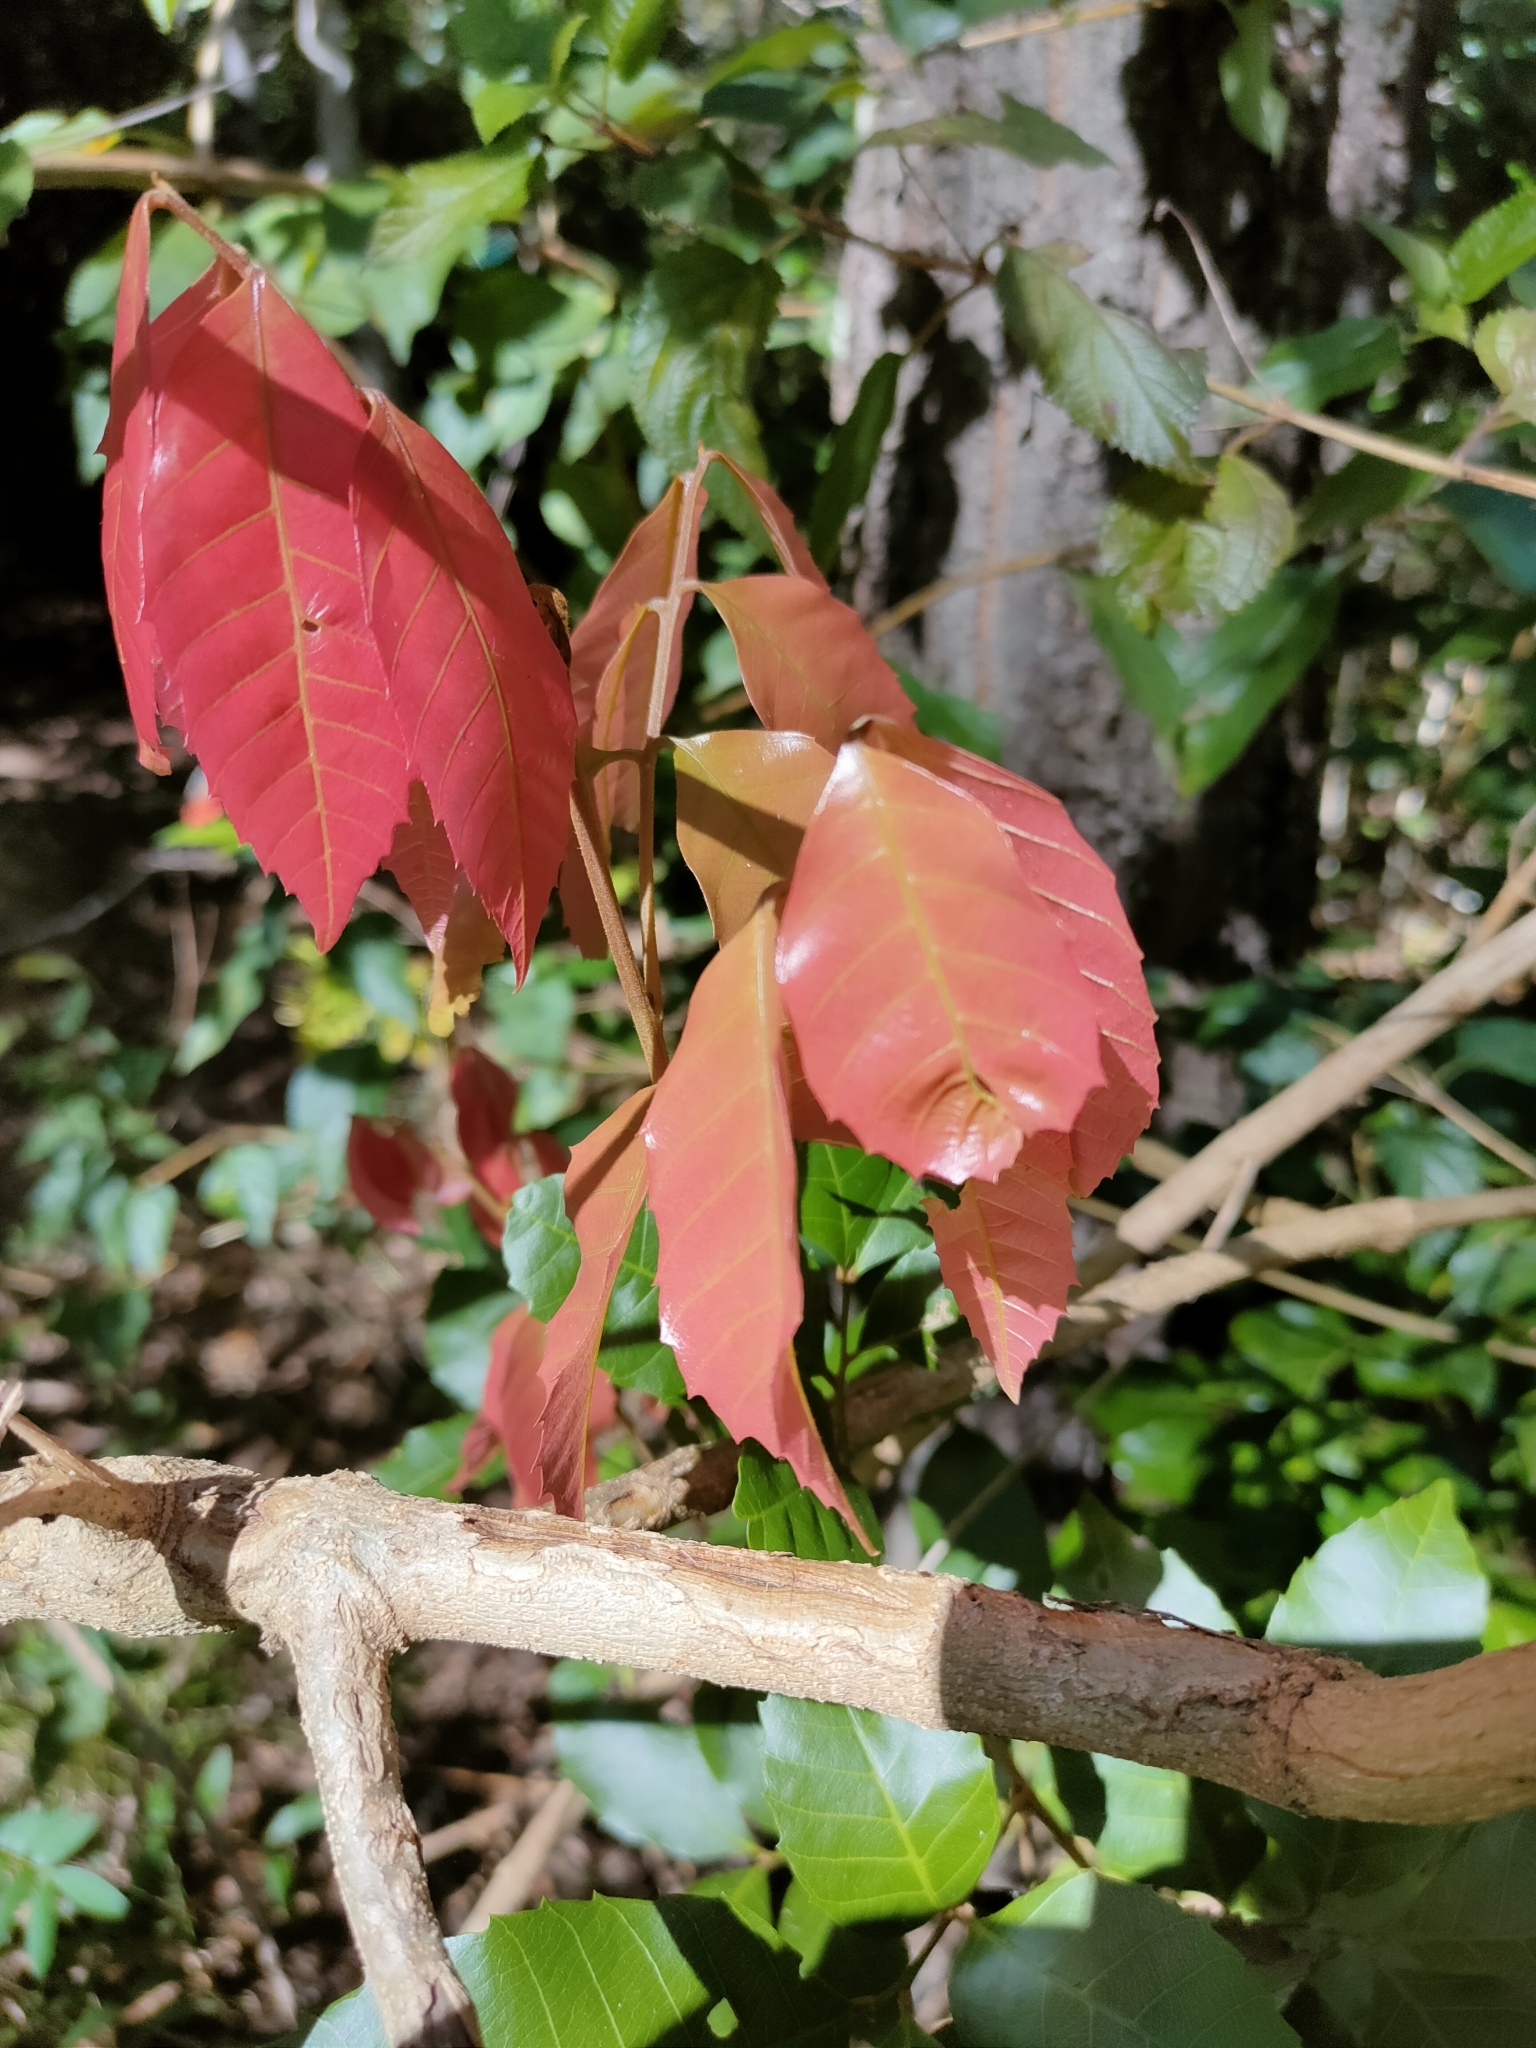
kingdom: Plantae
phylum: Tracheophyta
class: Magnoliopsida
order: Sapindales
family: Sapindaceae
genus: Arytera
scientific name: Arytera foveolata
